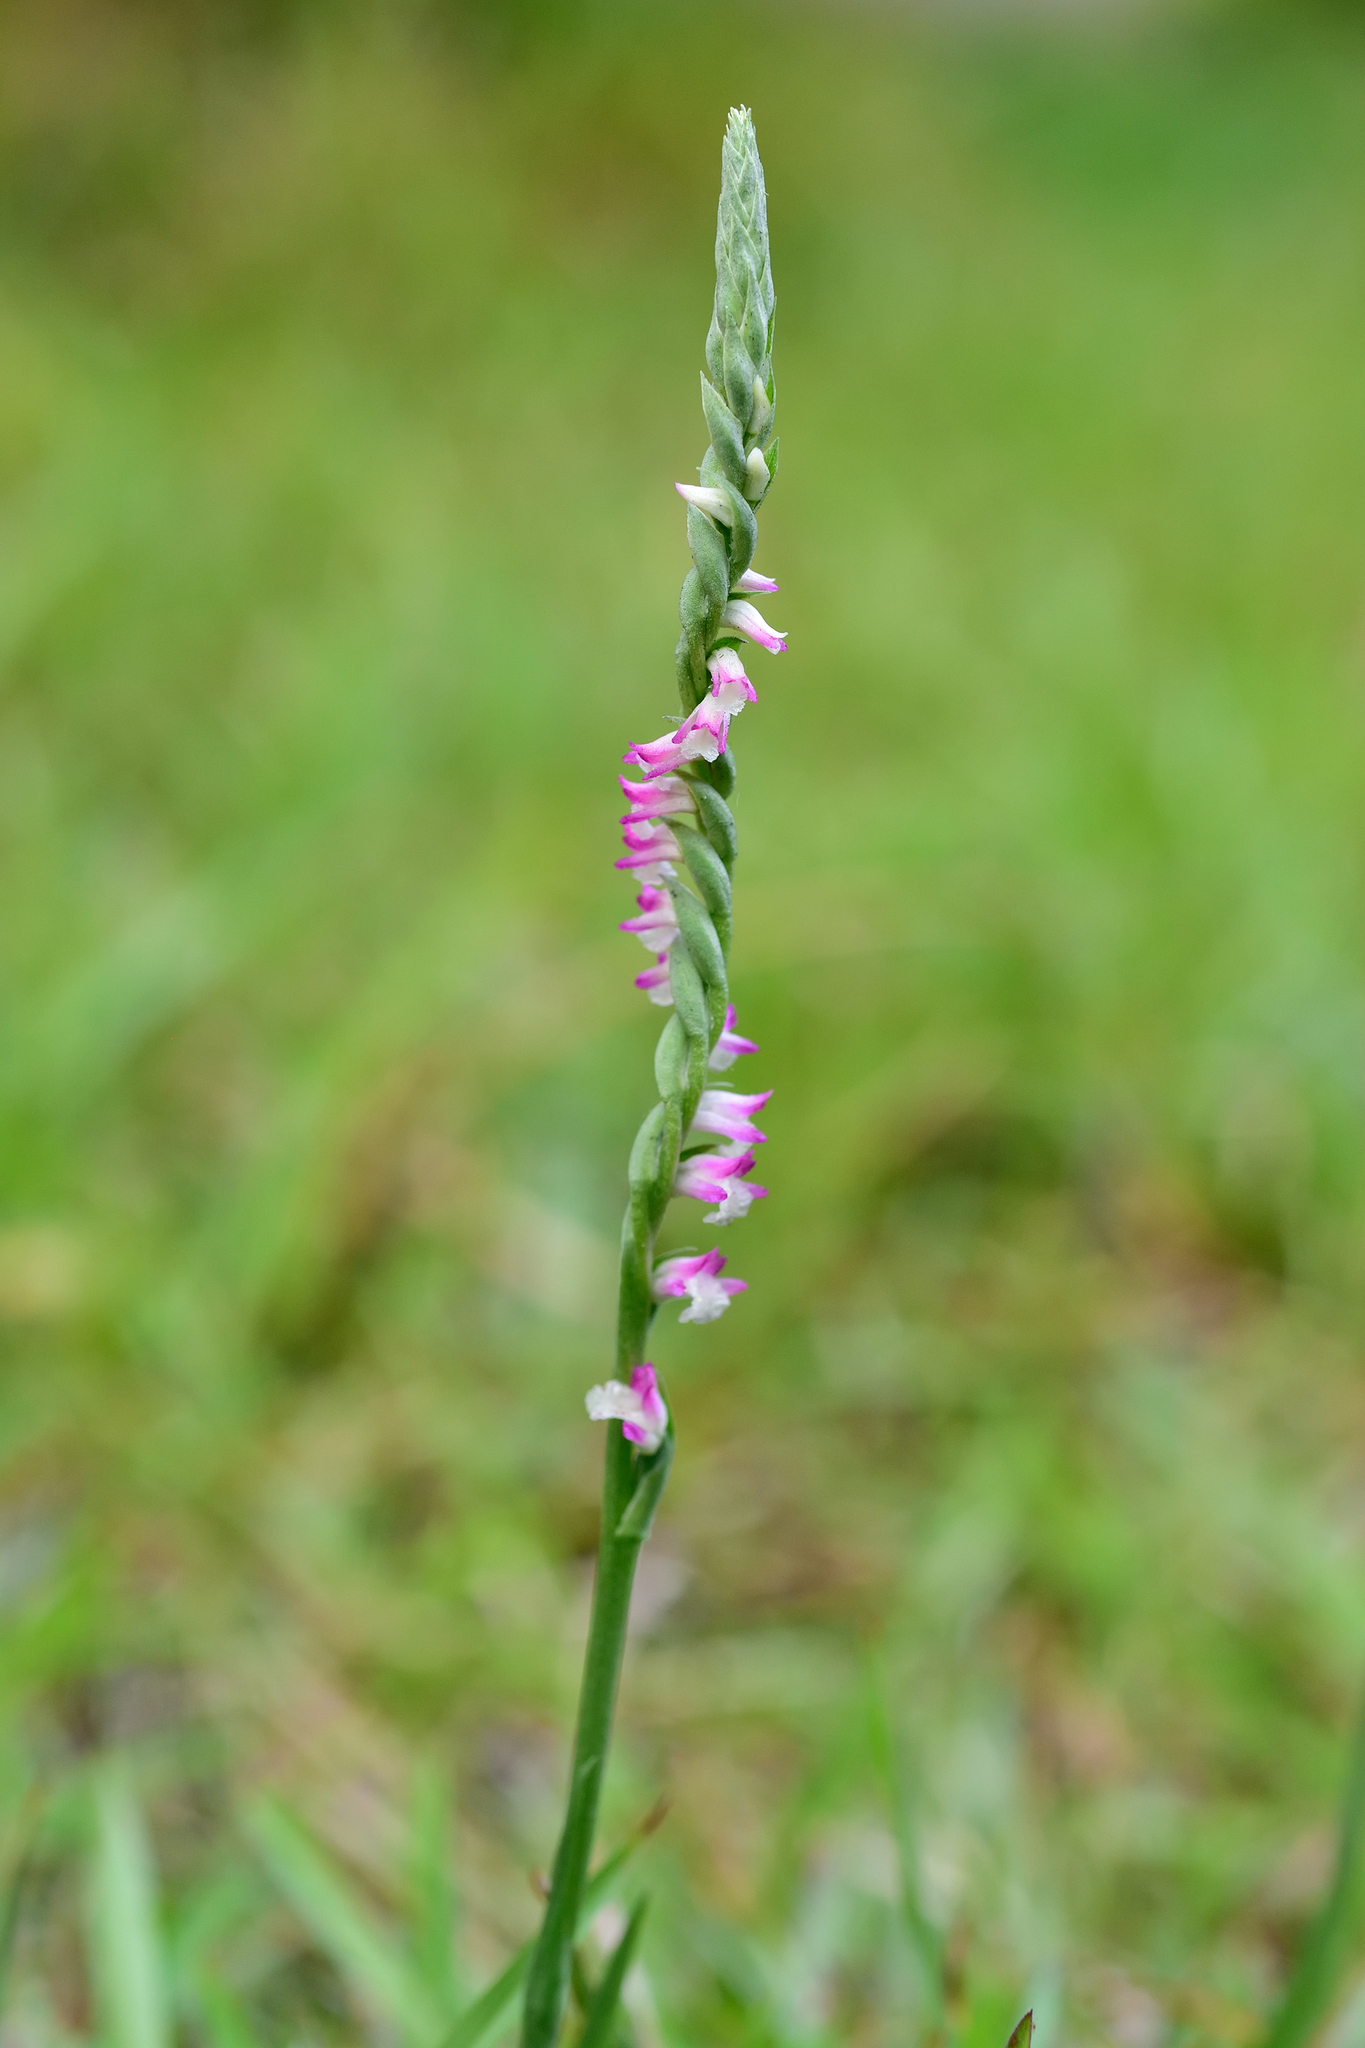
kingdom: Plantae
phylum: Tracheophyta
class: Liliopsida
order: Asparagales
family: Orchidaceae
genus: Spiranthes
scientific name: Spiranthes sinensis
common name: Chinese spiranthes
